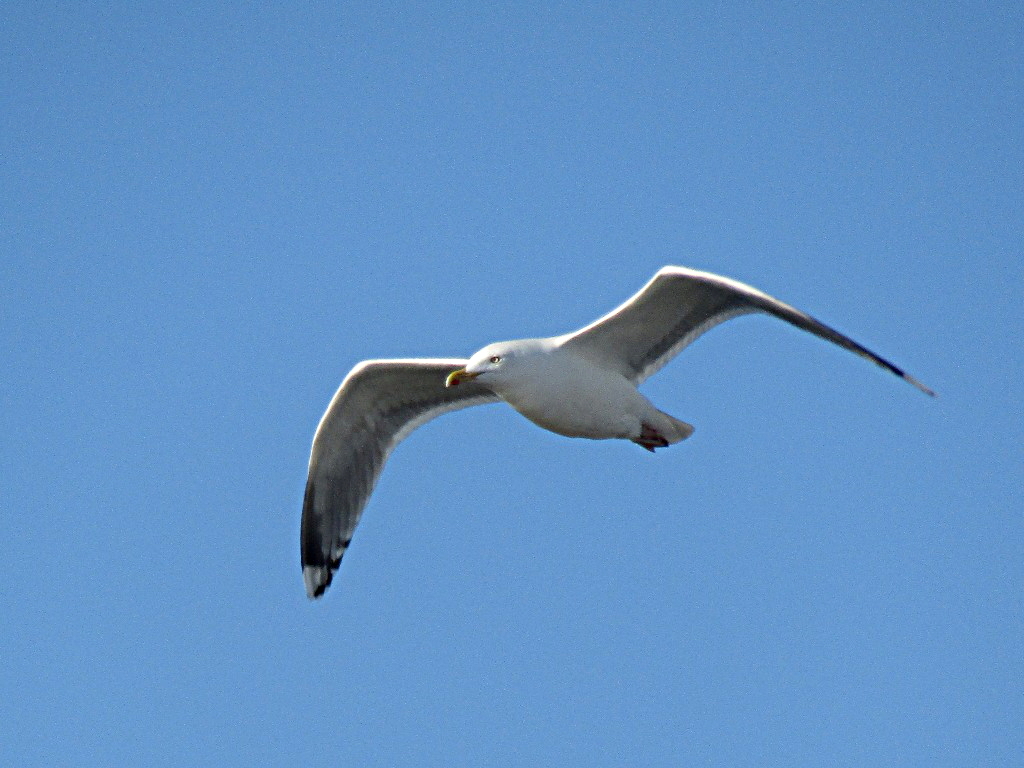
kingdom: Animalia
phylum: Chordata
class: Aves
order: Charadriiformes
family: Laridae
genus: Larus
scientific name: Larus argentatus
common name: Herring gull
